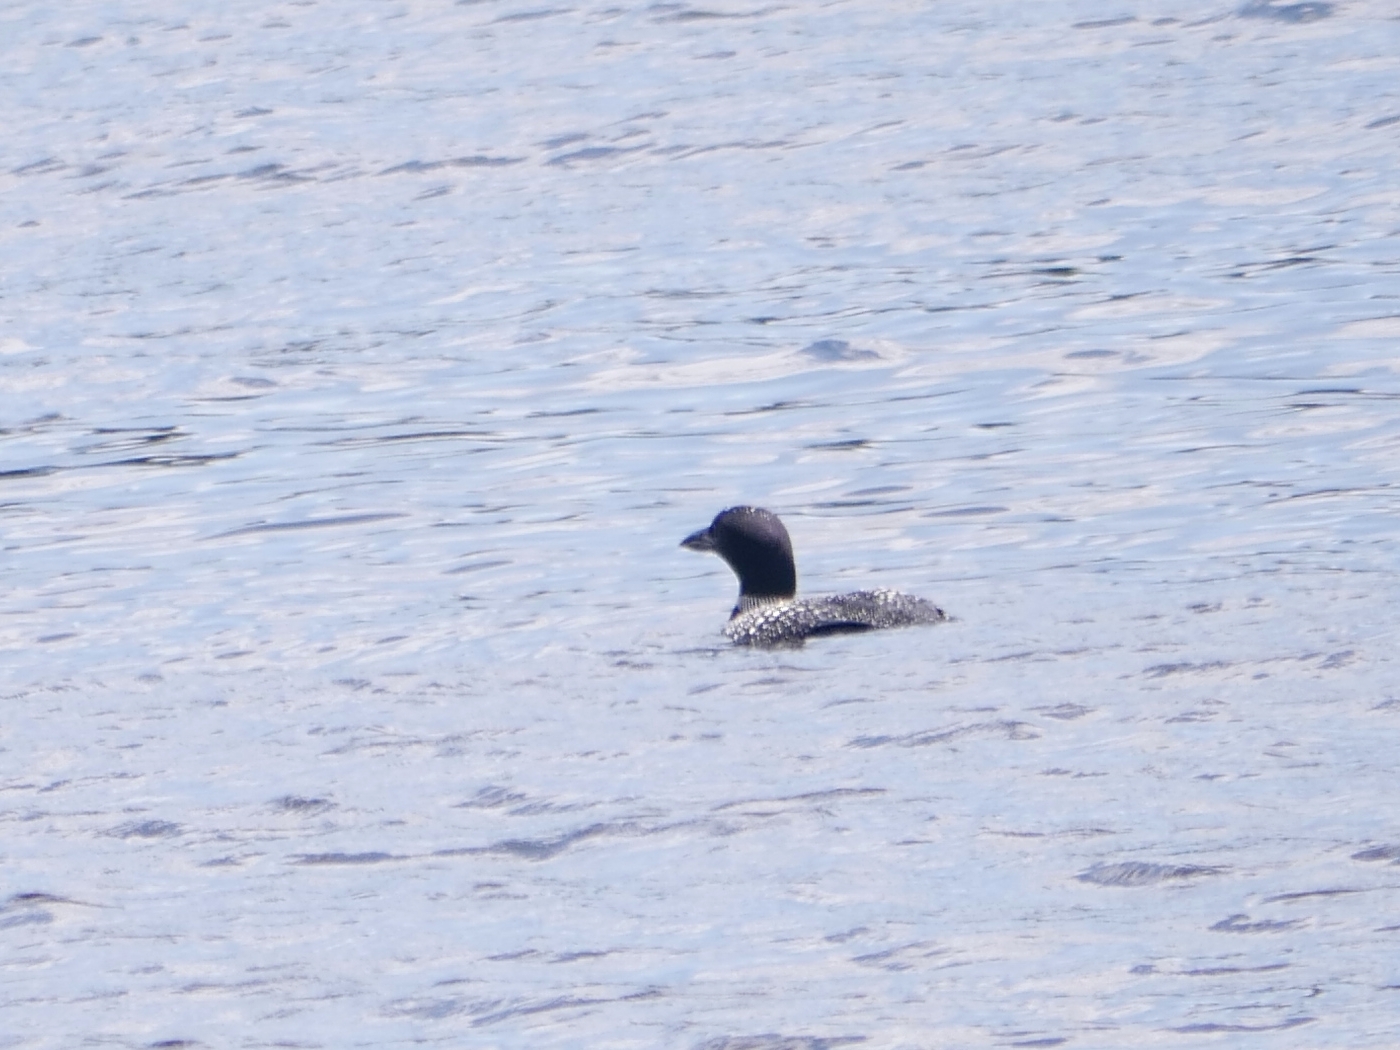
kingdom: Animalia
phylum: Chordata
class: Aves
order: Gaviiformes
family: Gaviidae
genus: Gavia
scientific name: Gavia immer
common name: Common loon
